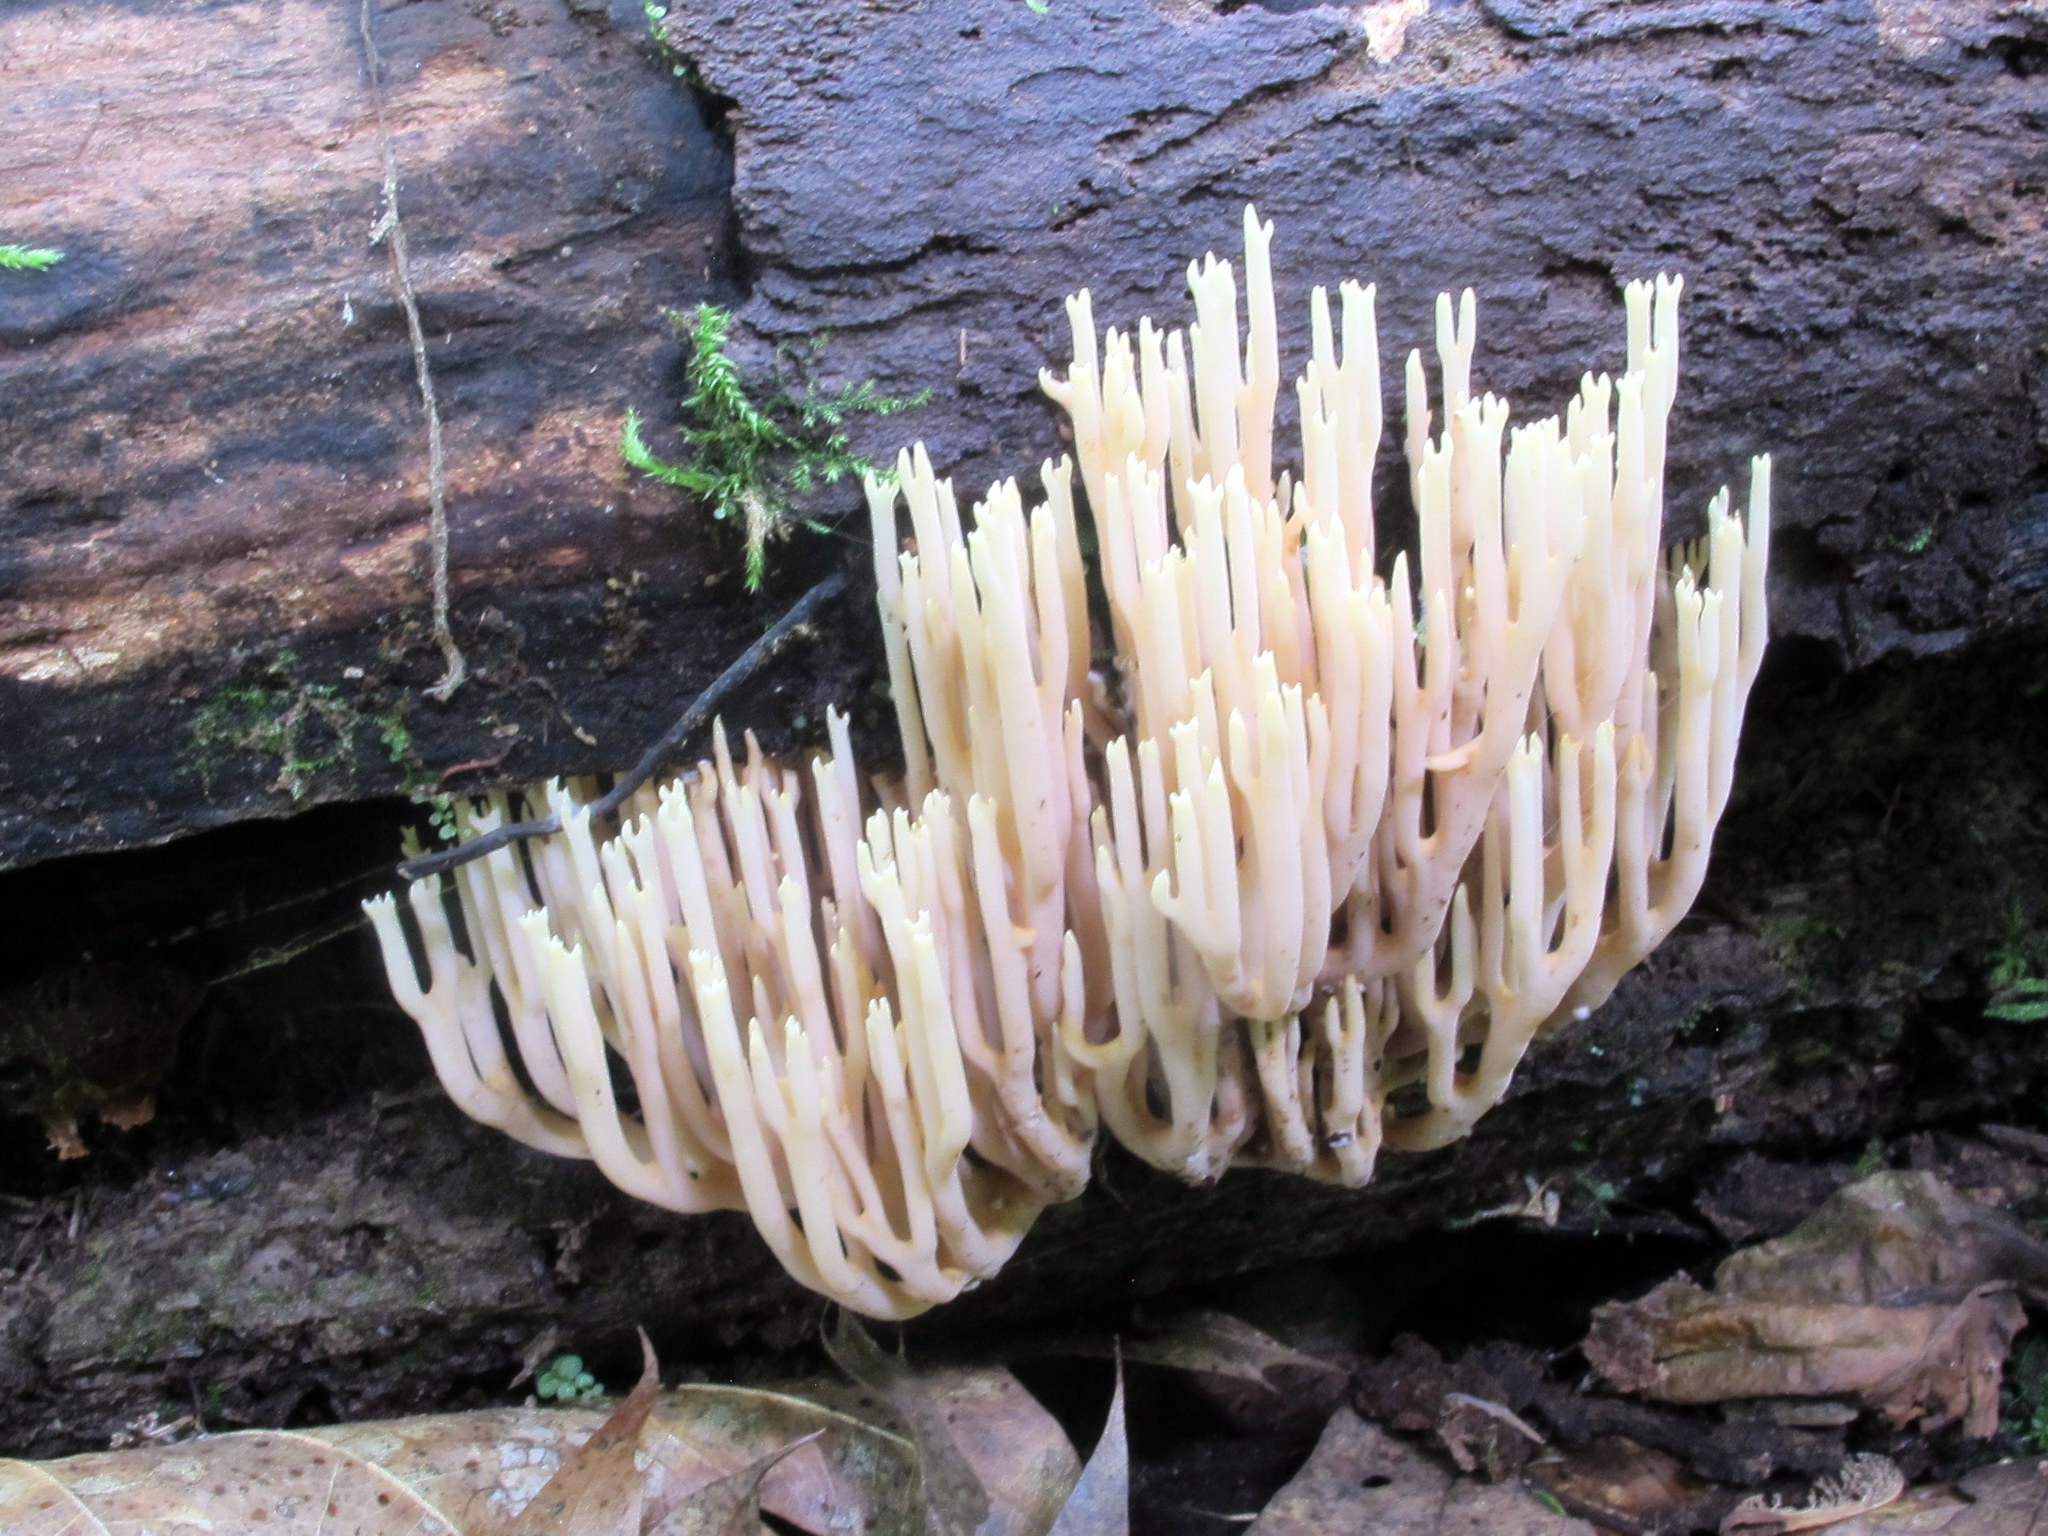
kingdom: Fungi
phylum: Basidiomycota
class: Agaricomycetes
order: Gomphales
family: Gomphaceae
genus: Ramaria
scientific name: Ramaria stricta
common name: Upright coral
